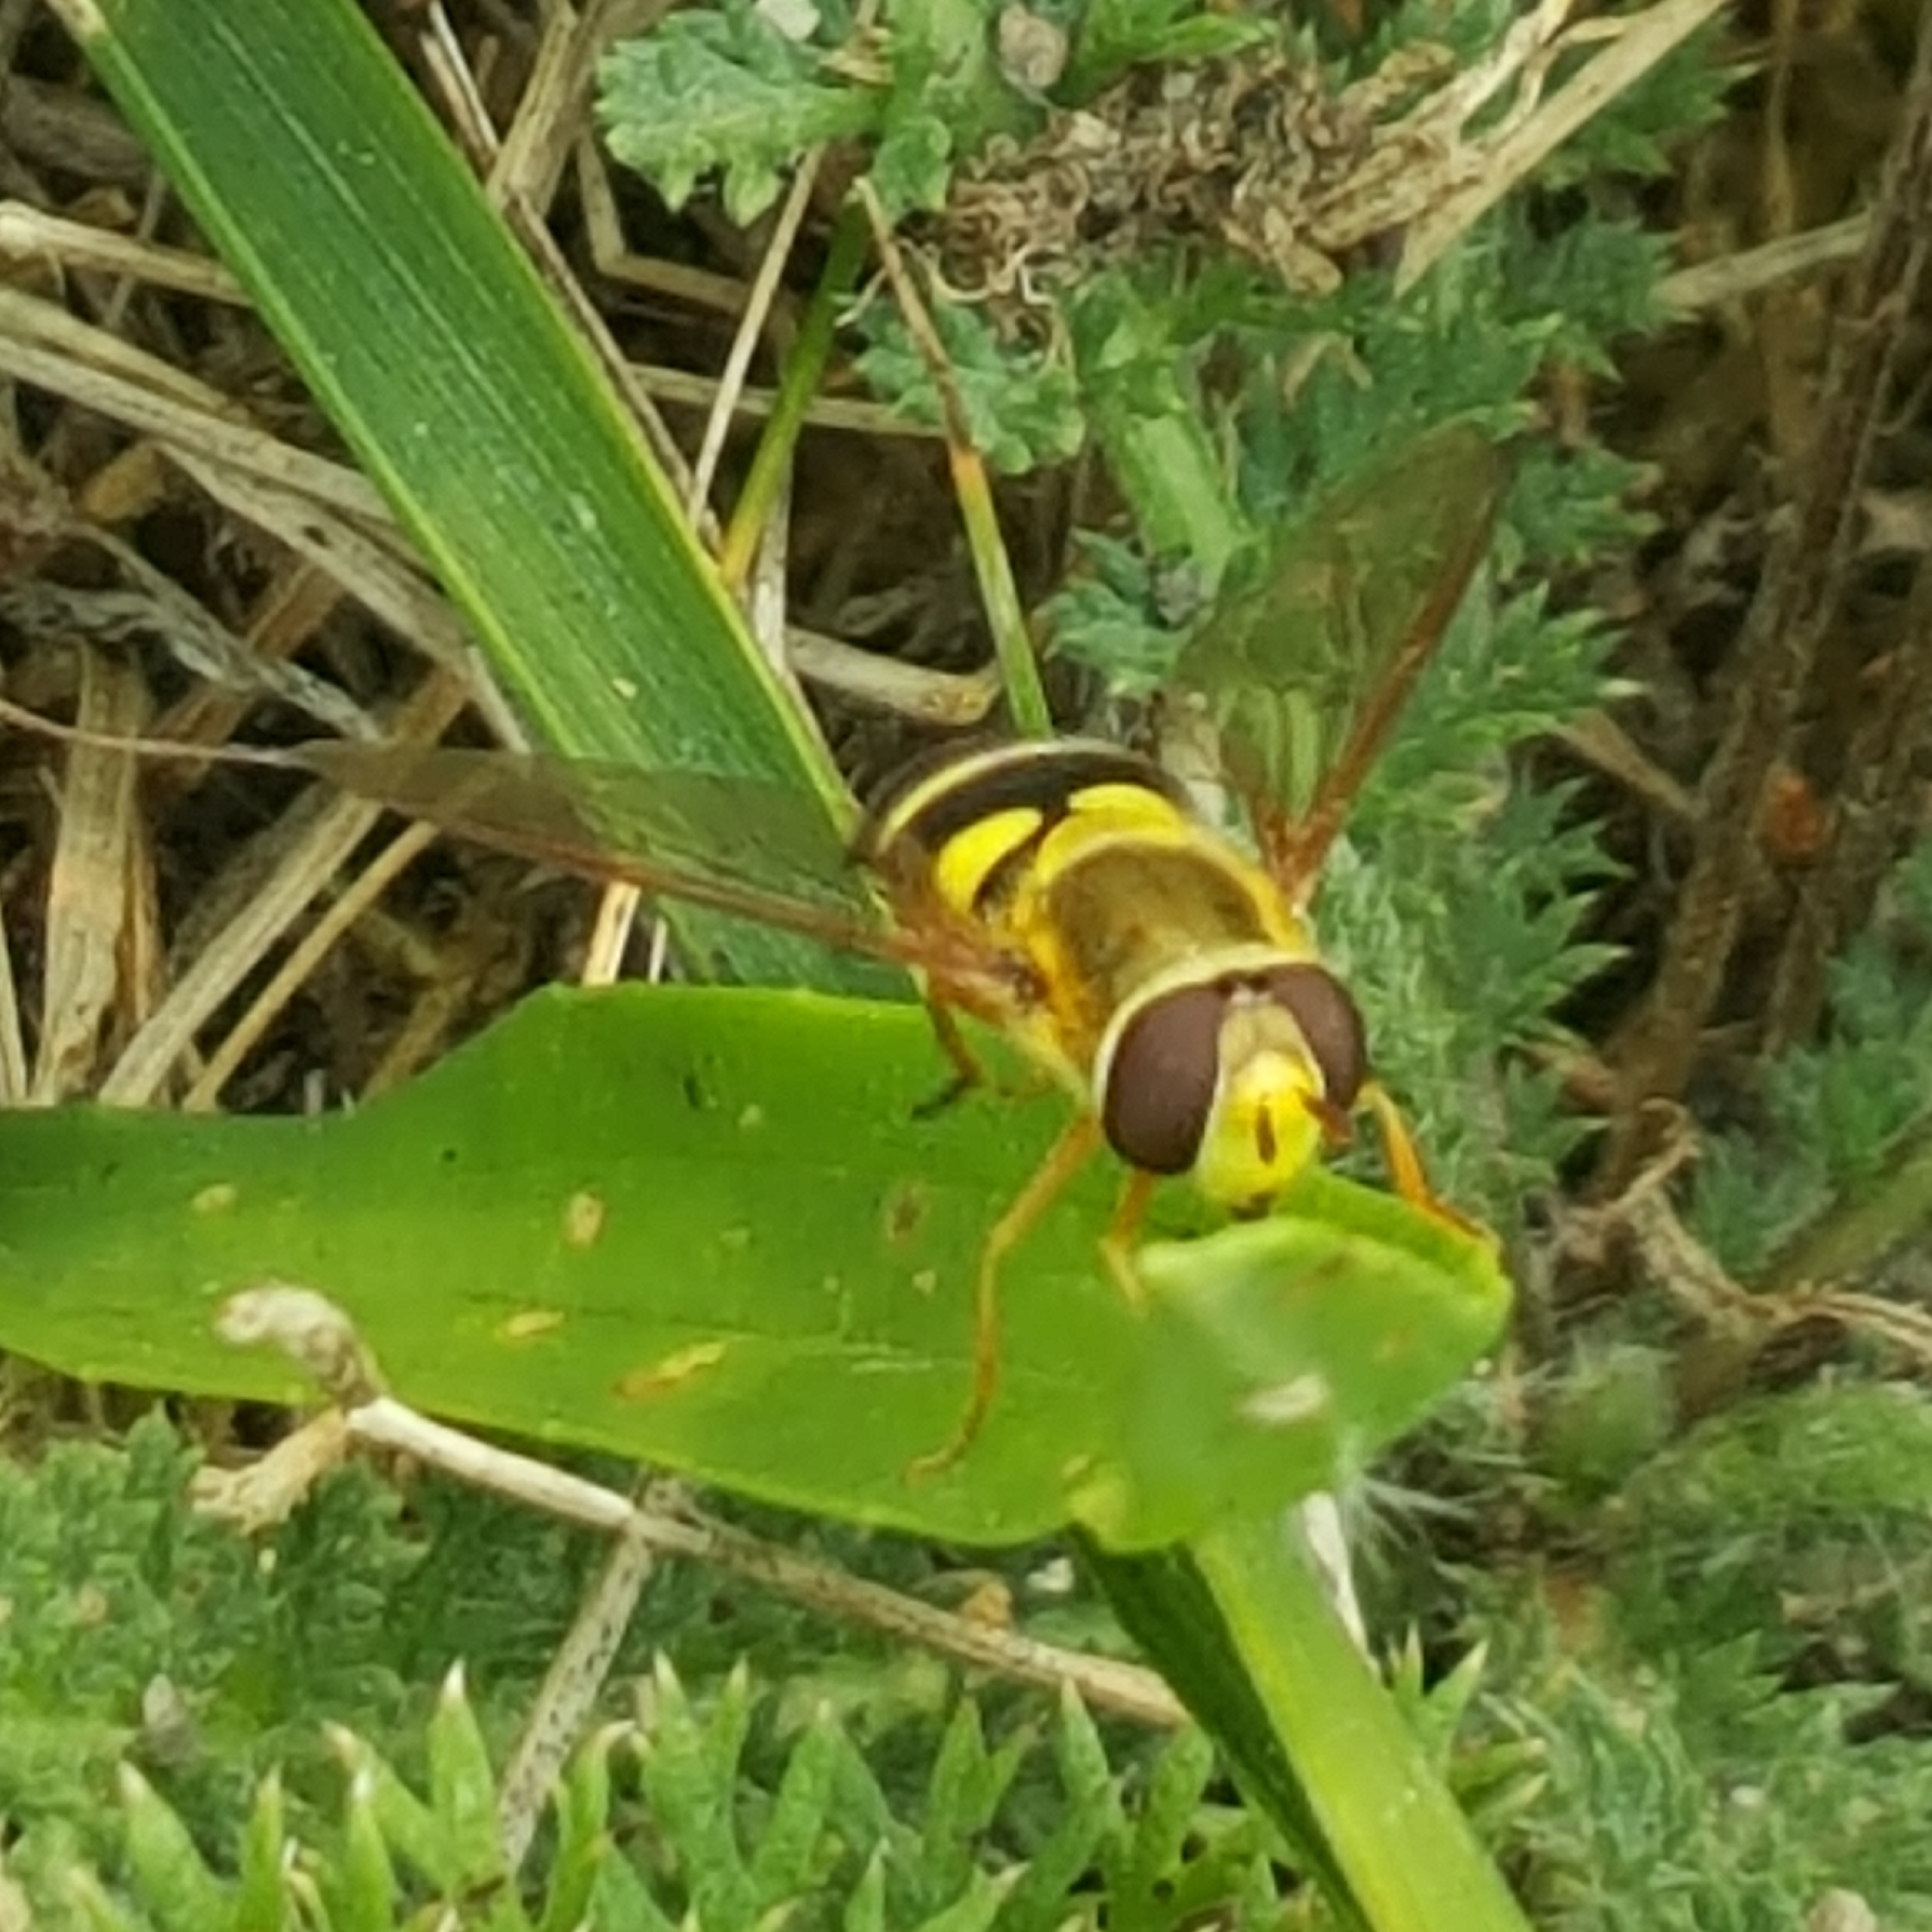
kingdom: Animalia
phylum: Arthropoda
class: Insecta
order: Diptera
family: Syrphidae
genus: Syrphus
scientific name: Syrphus opinator
